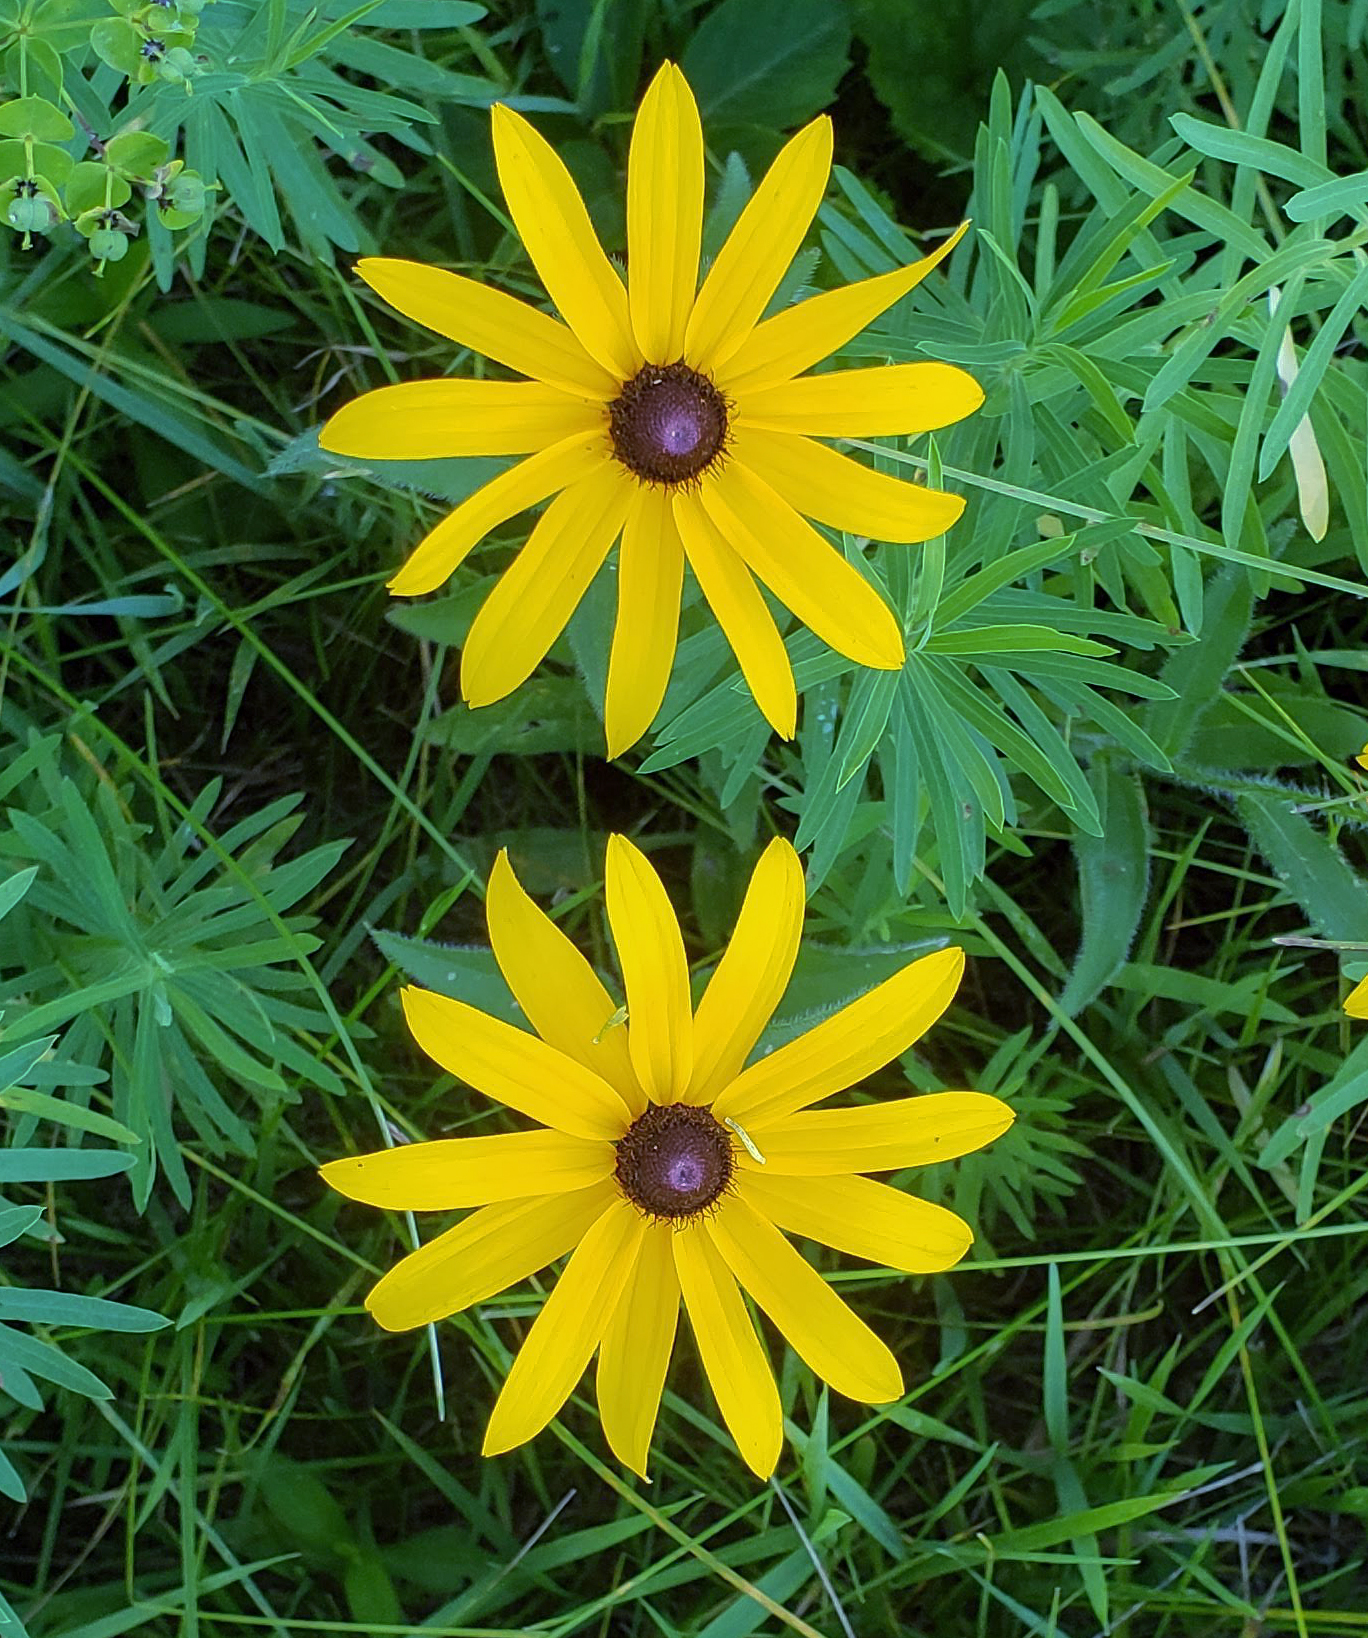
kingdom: Plantae
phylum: Tracheophyta
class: Magnoliopsida
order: Asterales
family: Asteraceae
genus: Rudbeckia
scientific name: Rudbeckia hirta
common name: Black-eyed-susan
